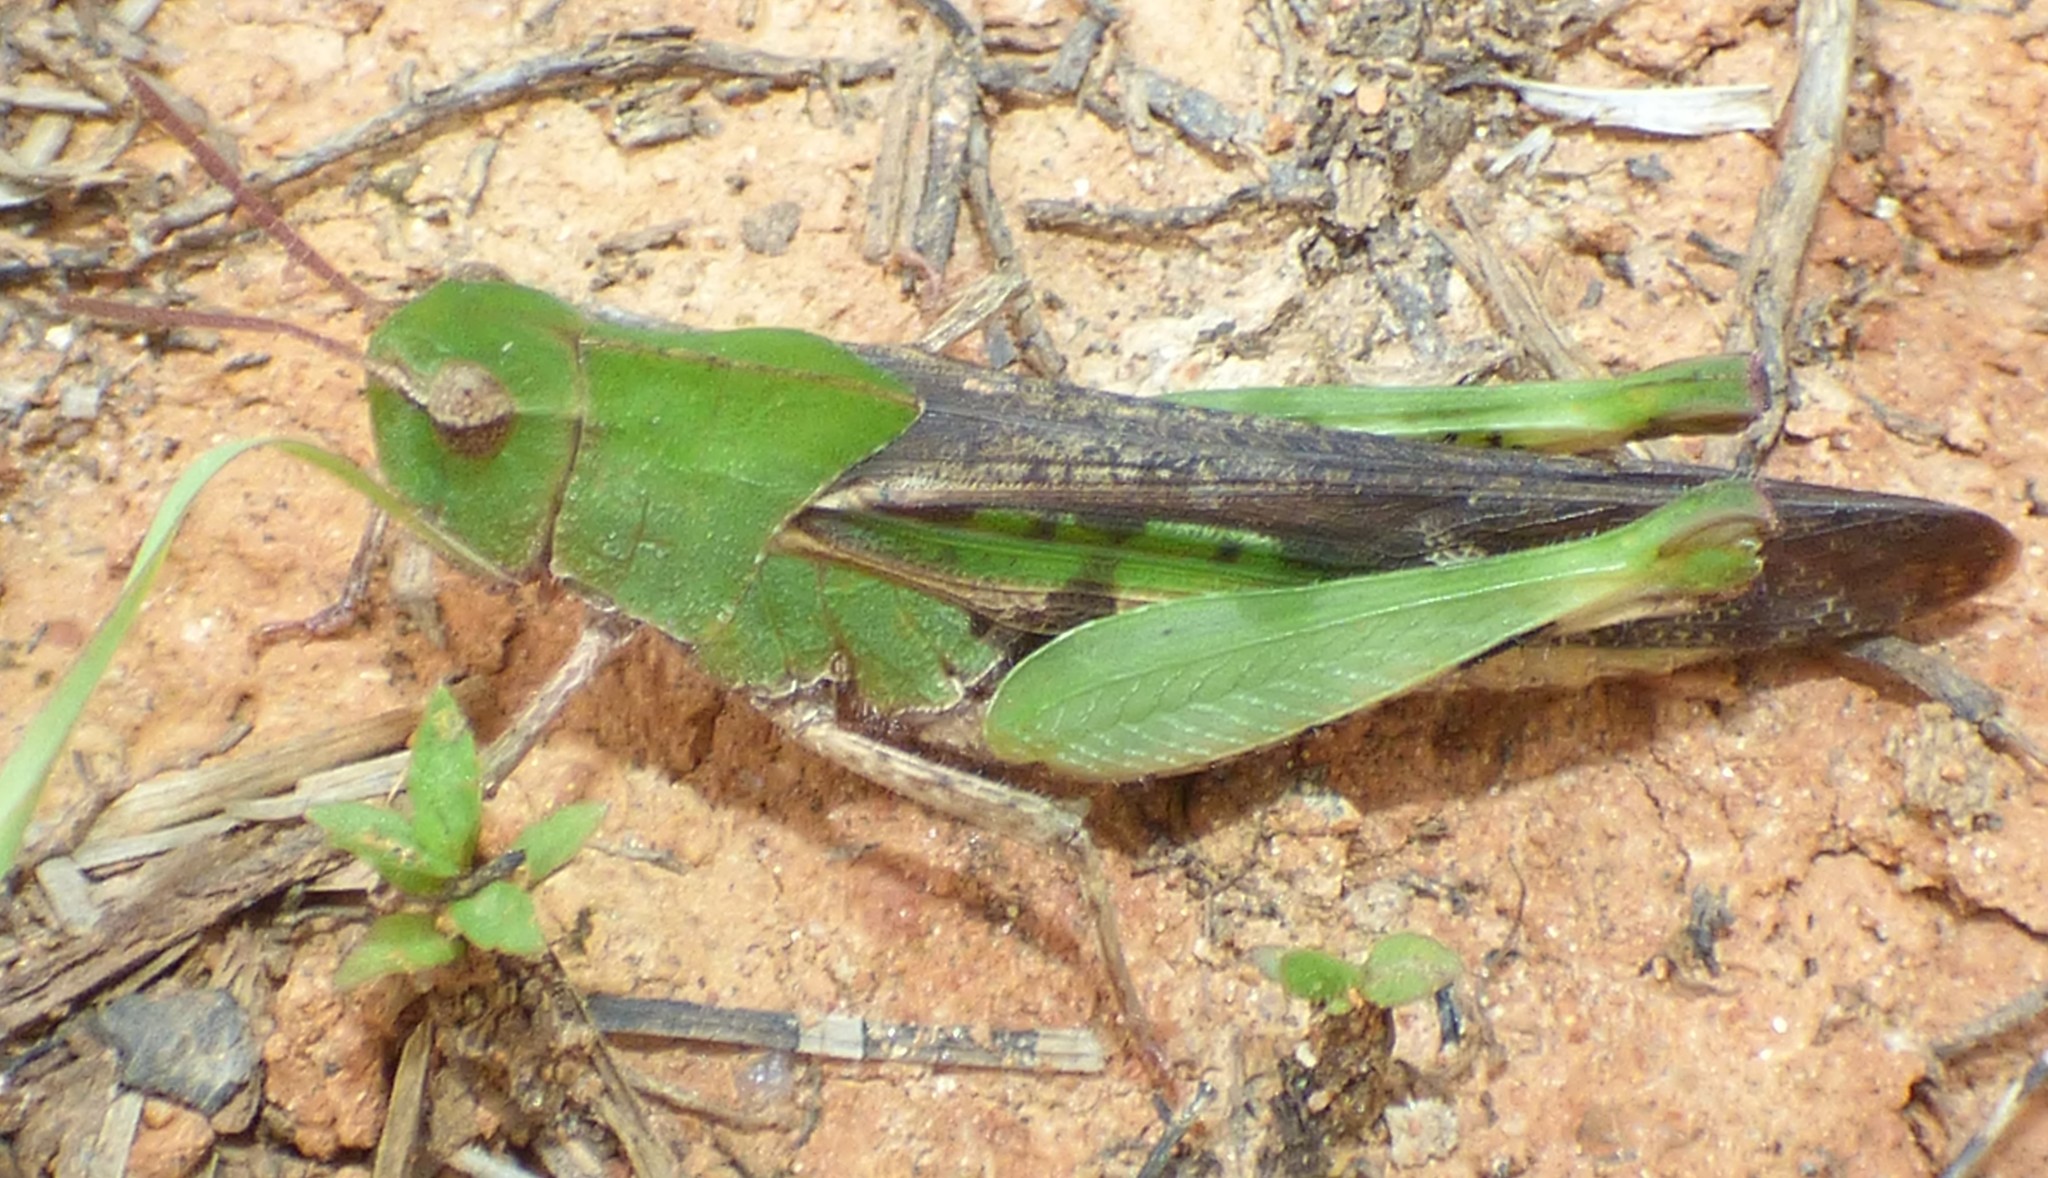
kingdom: Animalia
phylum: Arthropoda
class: Insecta
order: Orthoptera
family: Acrididae
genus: Chortophaga
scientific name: Chortophaga viridifasciata
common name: Green-striped grasshopper
